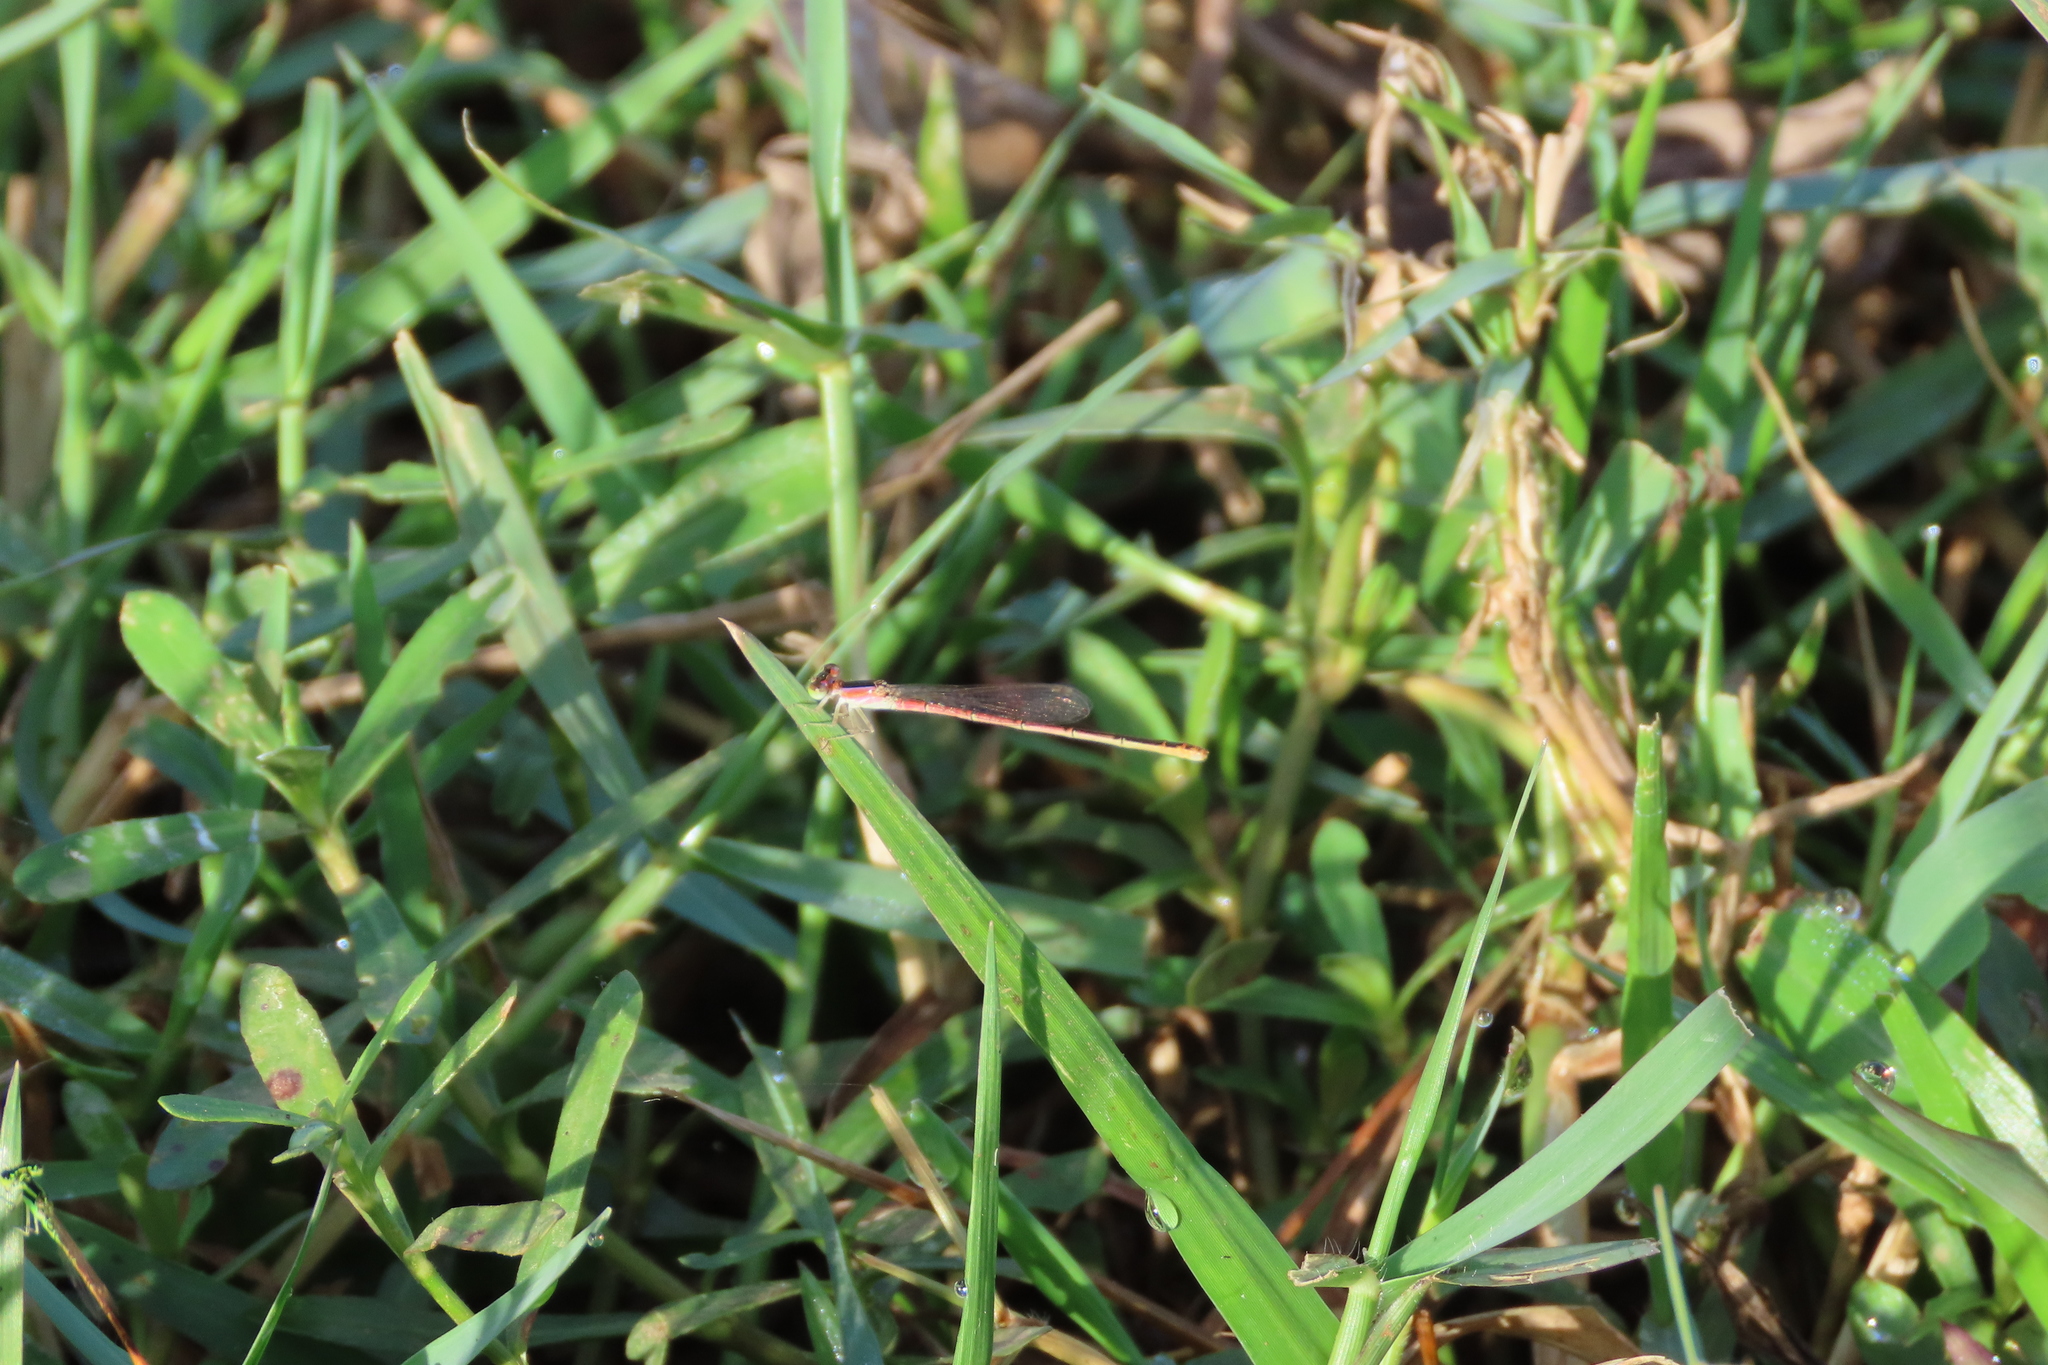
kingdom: Animalia
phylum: Arthropoda
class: Insecta
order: Odonata
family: Coenagrionidae
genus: Agriocnemis
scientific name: Agriocnemis pygmaea
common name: Pygmy wisp
